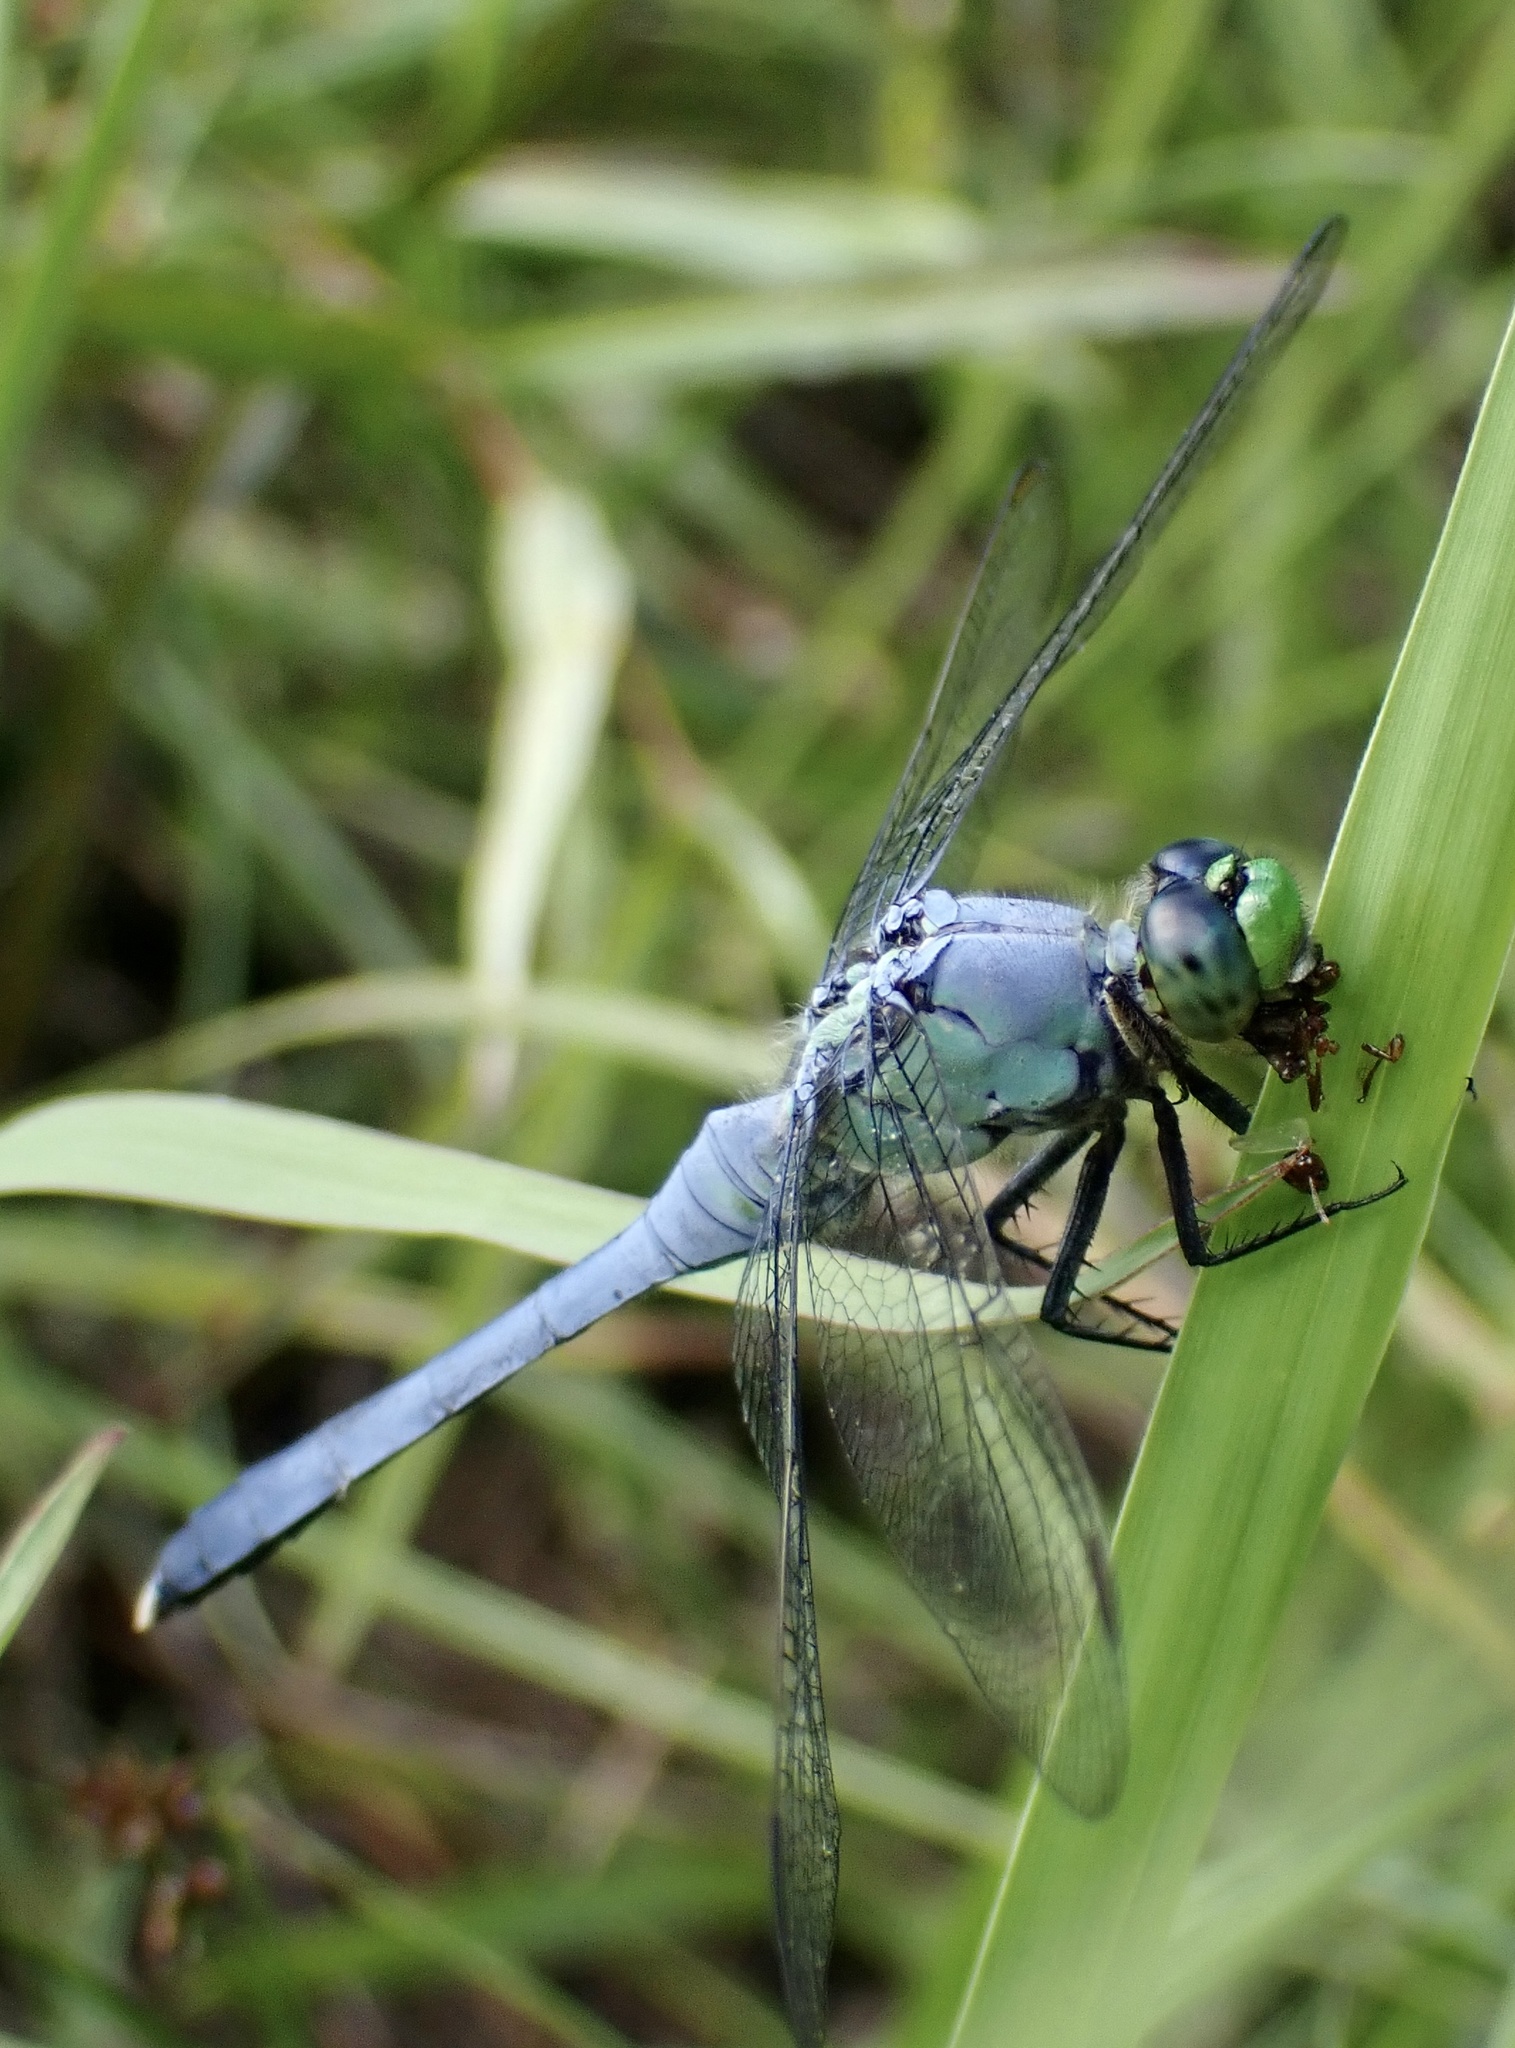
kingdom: Animalia
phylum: Arthropoda
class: Insecta
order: Odonata
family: Libellulidae
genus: Erythemis
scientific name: Erythemis simplicicollis
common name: Eastern pondhawk
